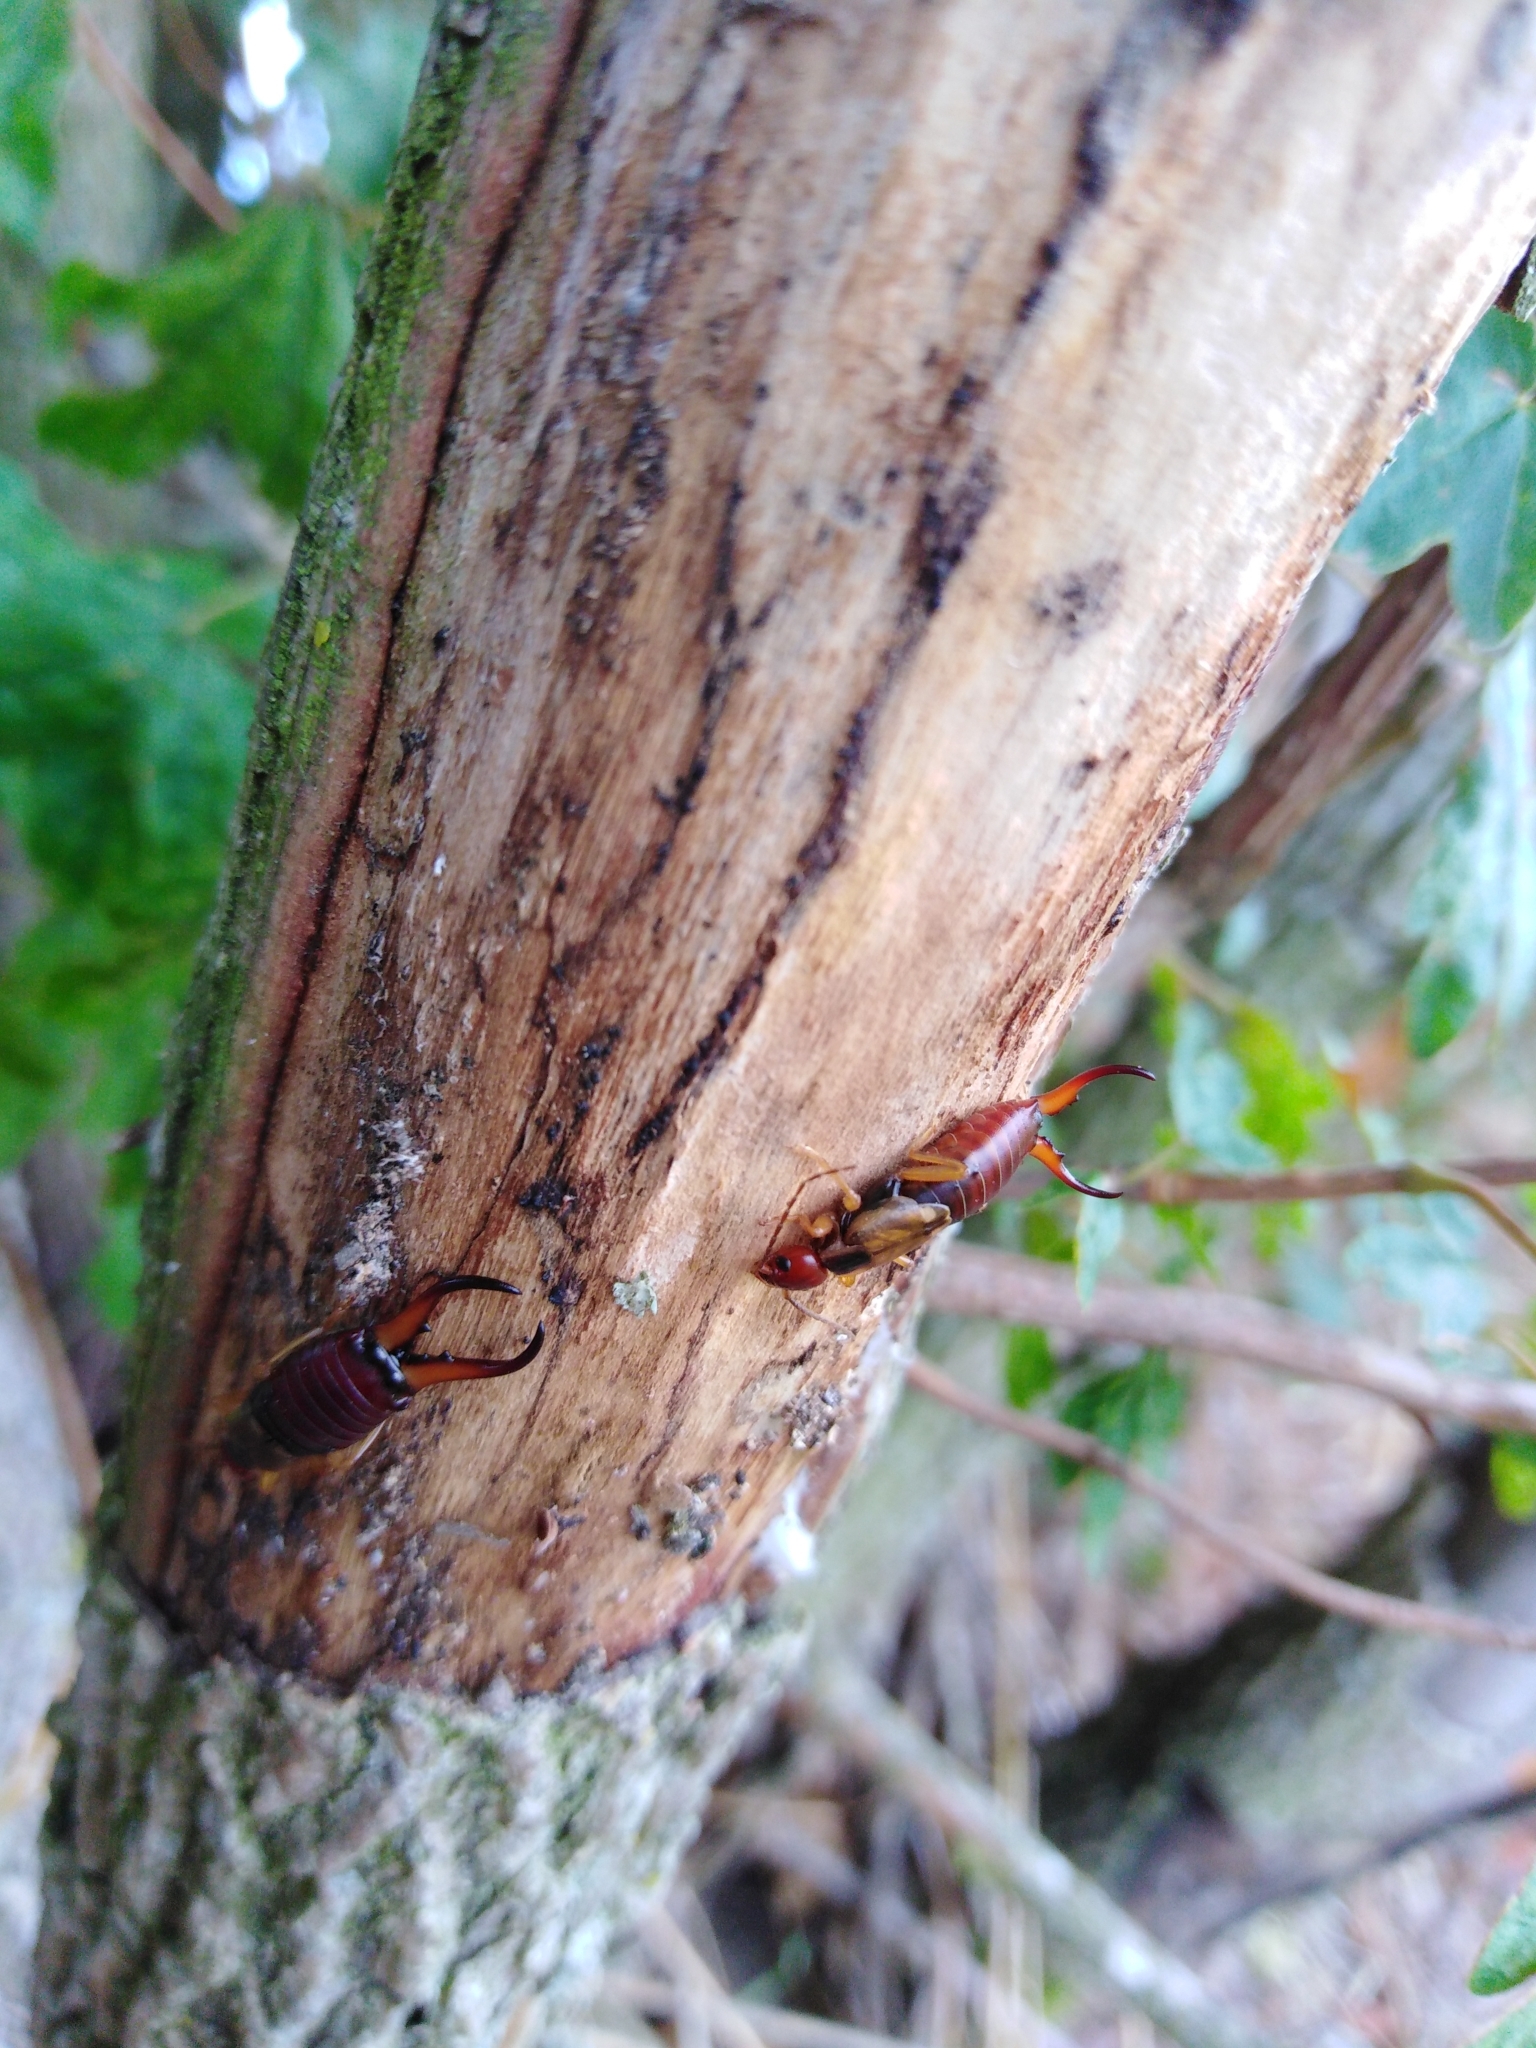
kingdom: Animalia
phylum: Arthropoda
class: Insecta
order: Dermaptera
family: Forficulidae
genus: Forficula
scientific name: Forficula
